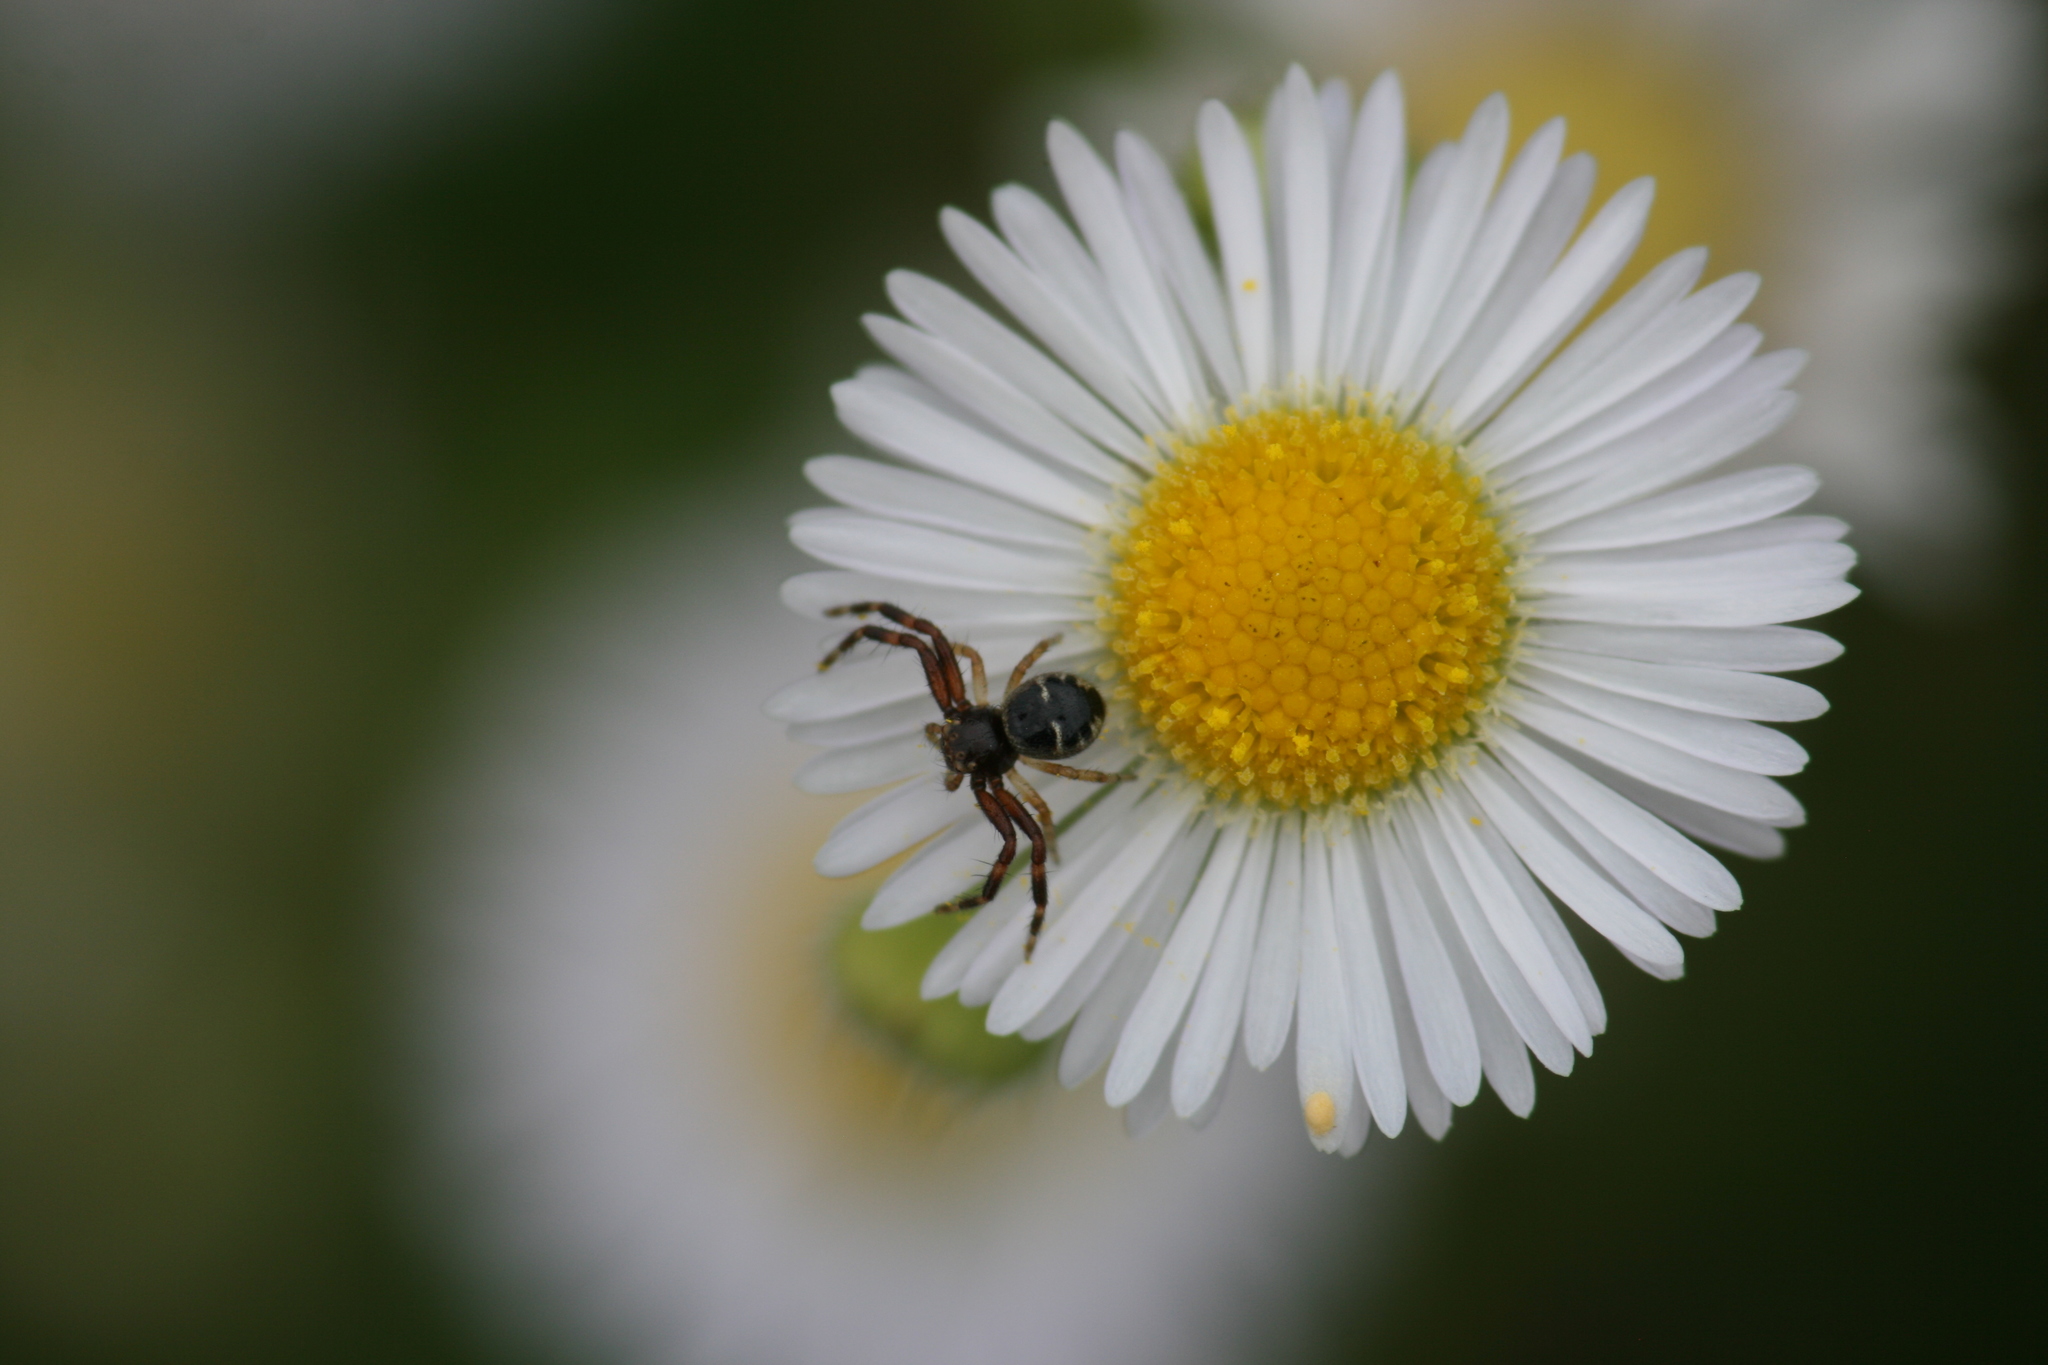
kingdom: Animalia
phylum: Arthropoda
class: Arachnida
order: Araneae
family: Thomisidae
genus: Synema
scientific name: Synema globosum
